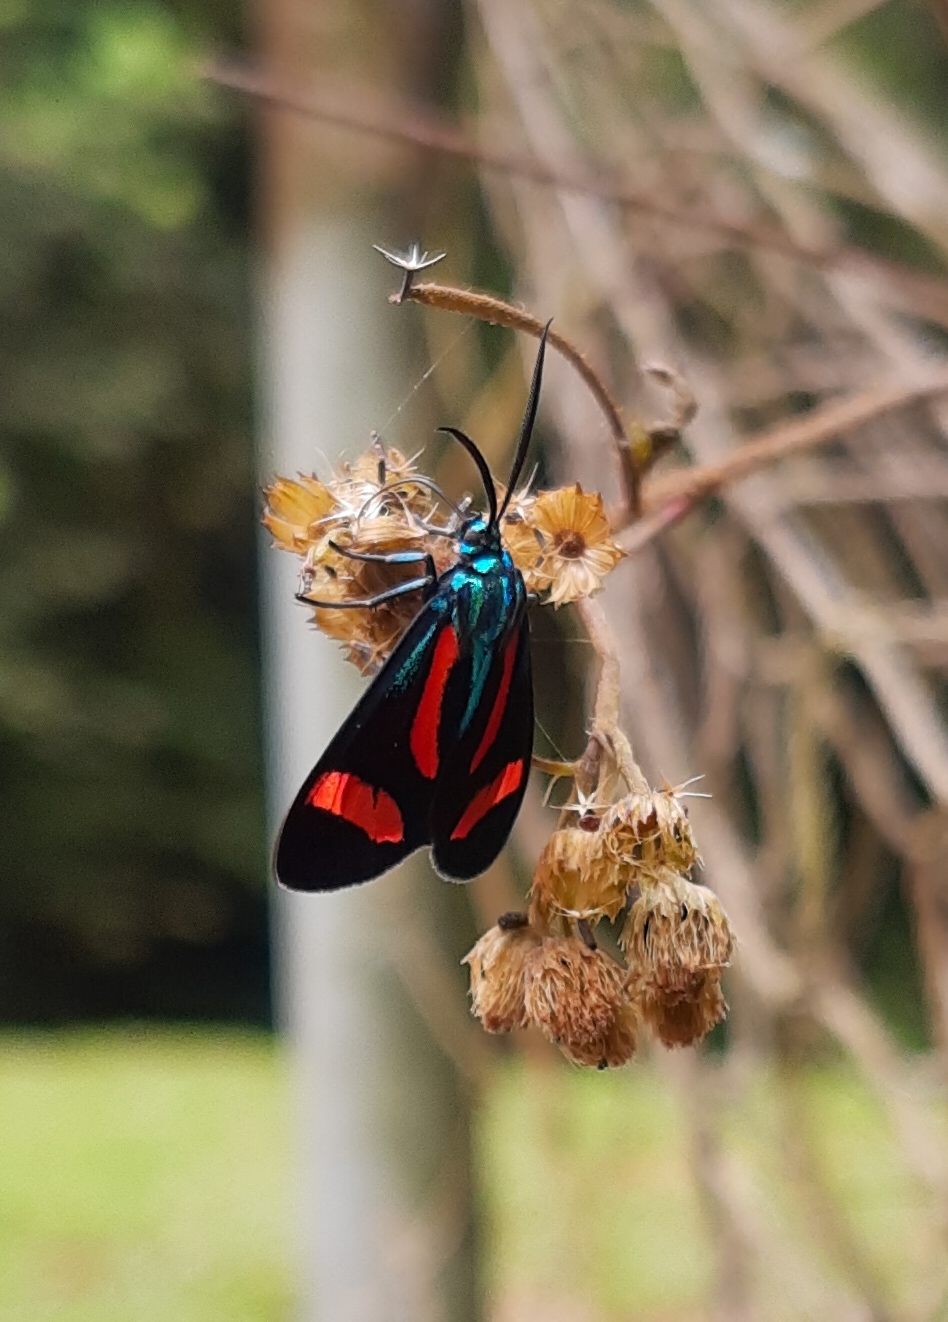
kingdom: Animalia
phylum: Arthropoda
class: Insecta
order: Lepidoptera
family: Erebidae
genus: Cyanopepla
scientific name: Cyanopepla jucunda
